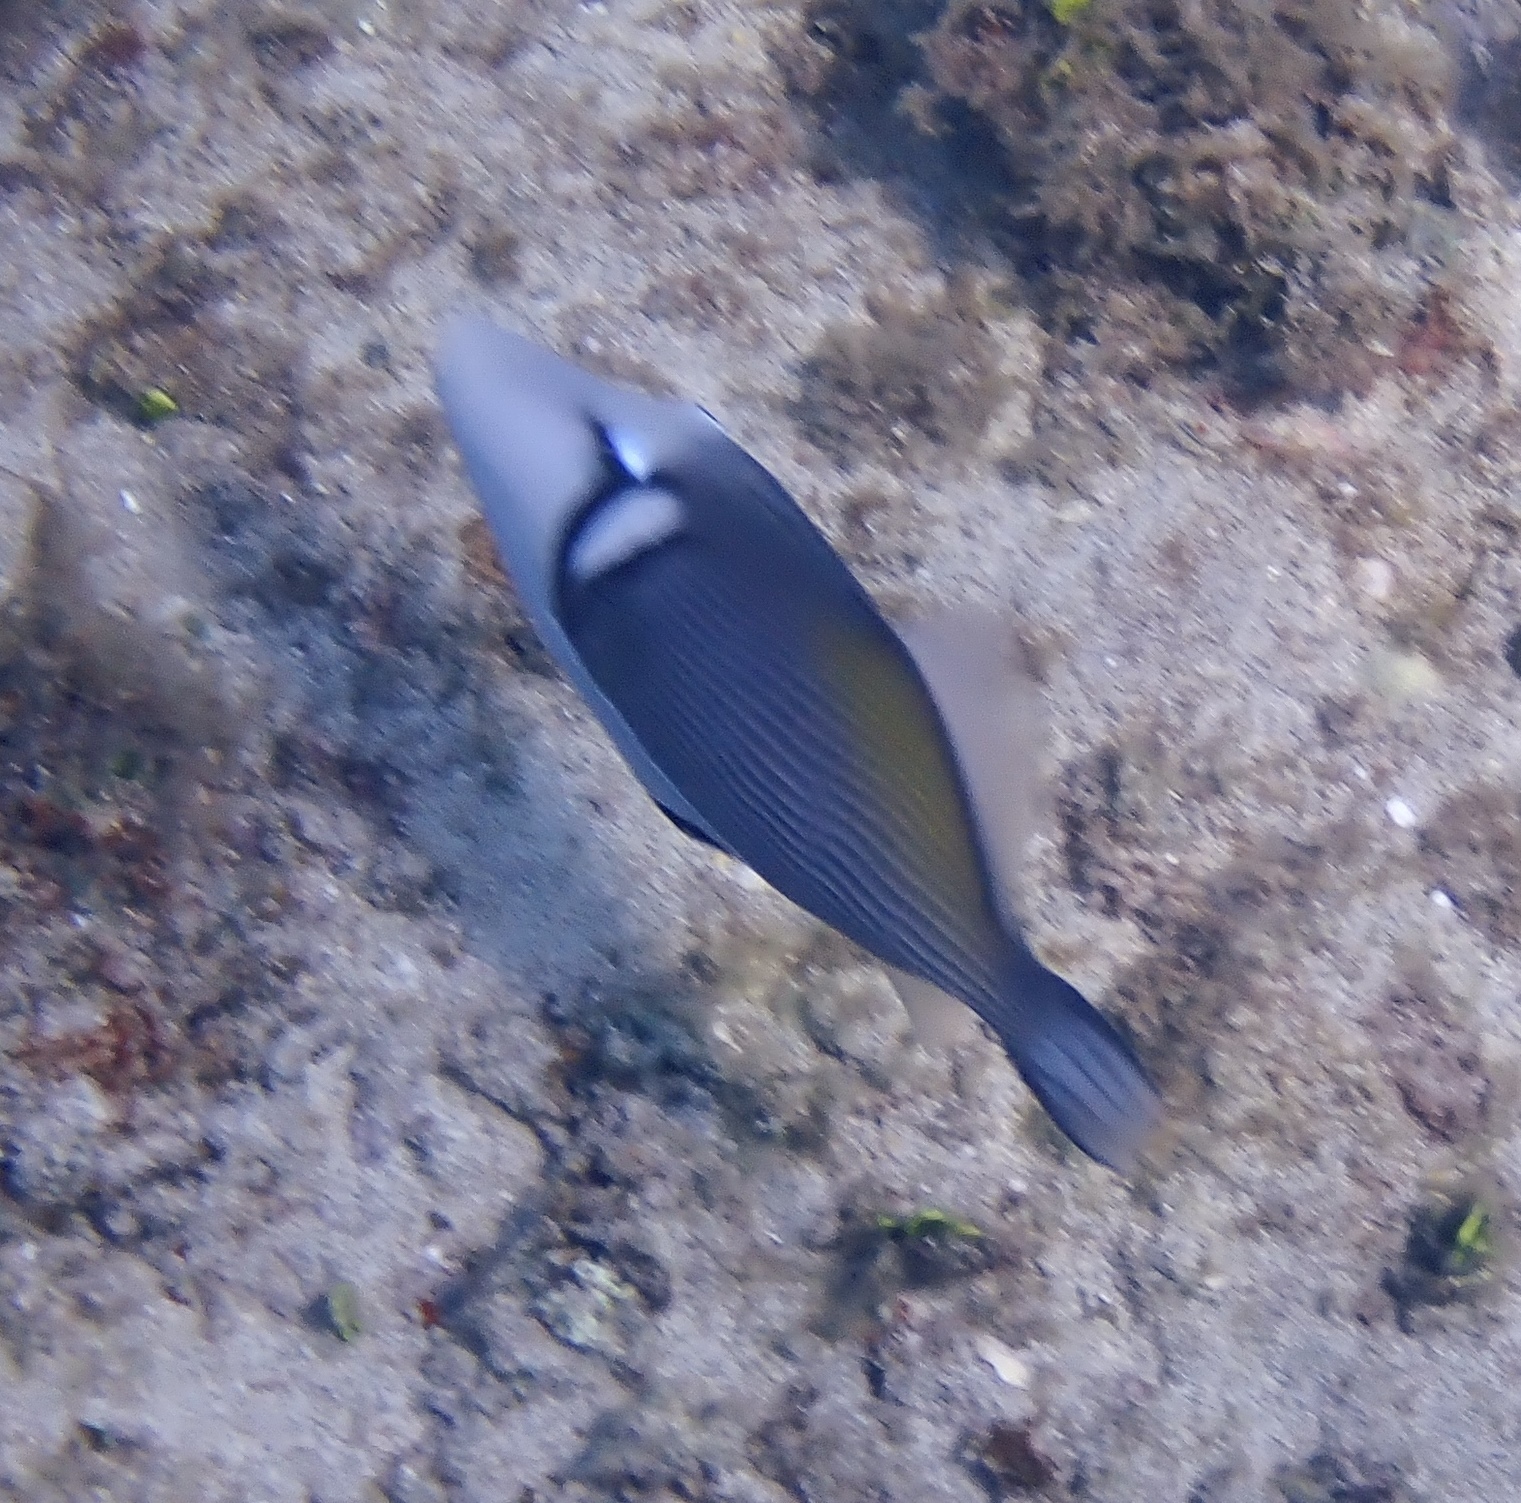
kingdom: Animalia
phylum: Chordata
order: Tetraodontiformes
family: Balistidae
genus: Sufflamen
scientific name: Sufflamen bursa
